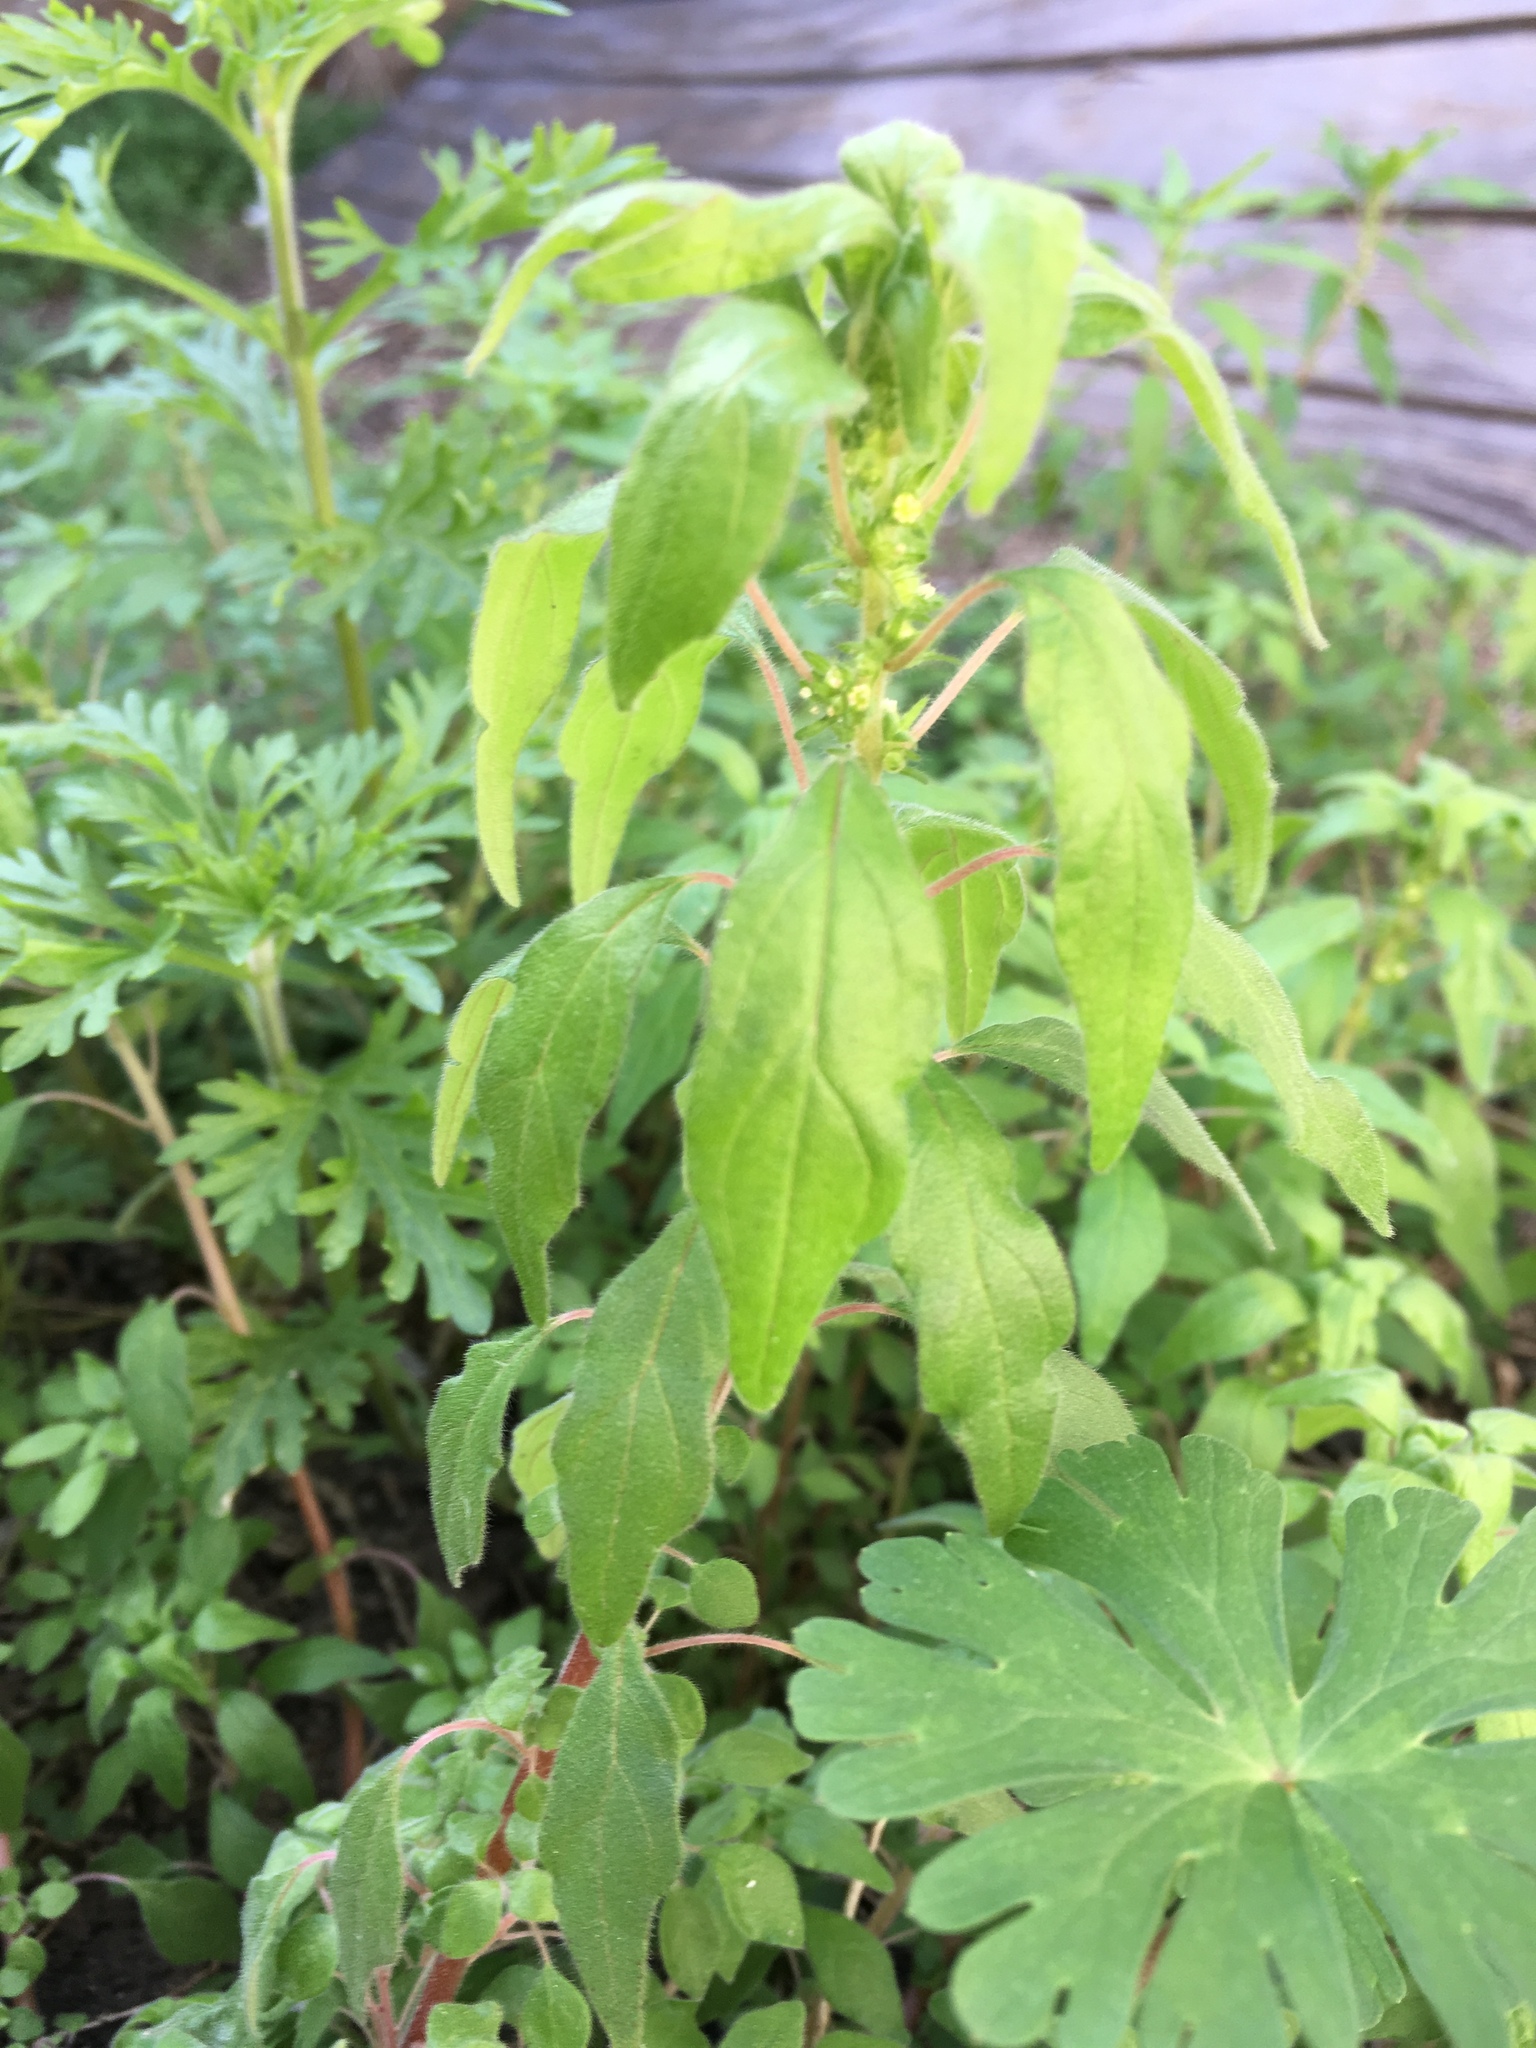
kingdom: Plantae
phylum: Tracheophyta
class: Magnoliopsida
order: Rosales
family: Urticaceae
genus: Parietaria
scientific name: Parietaria pensylvanica
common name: Pennsylvania pellitory
